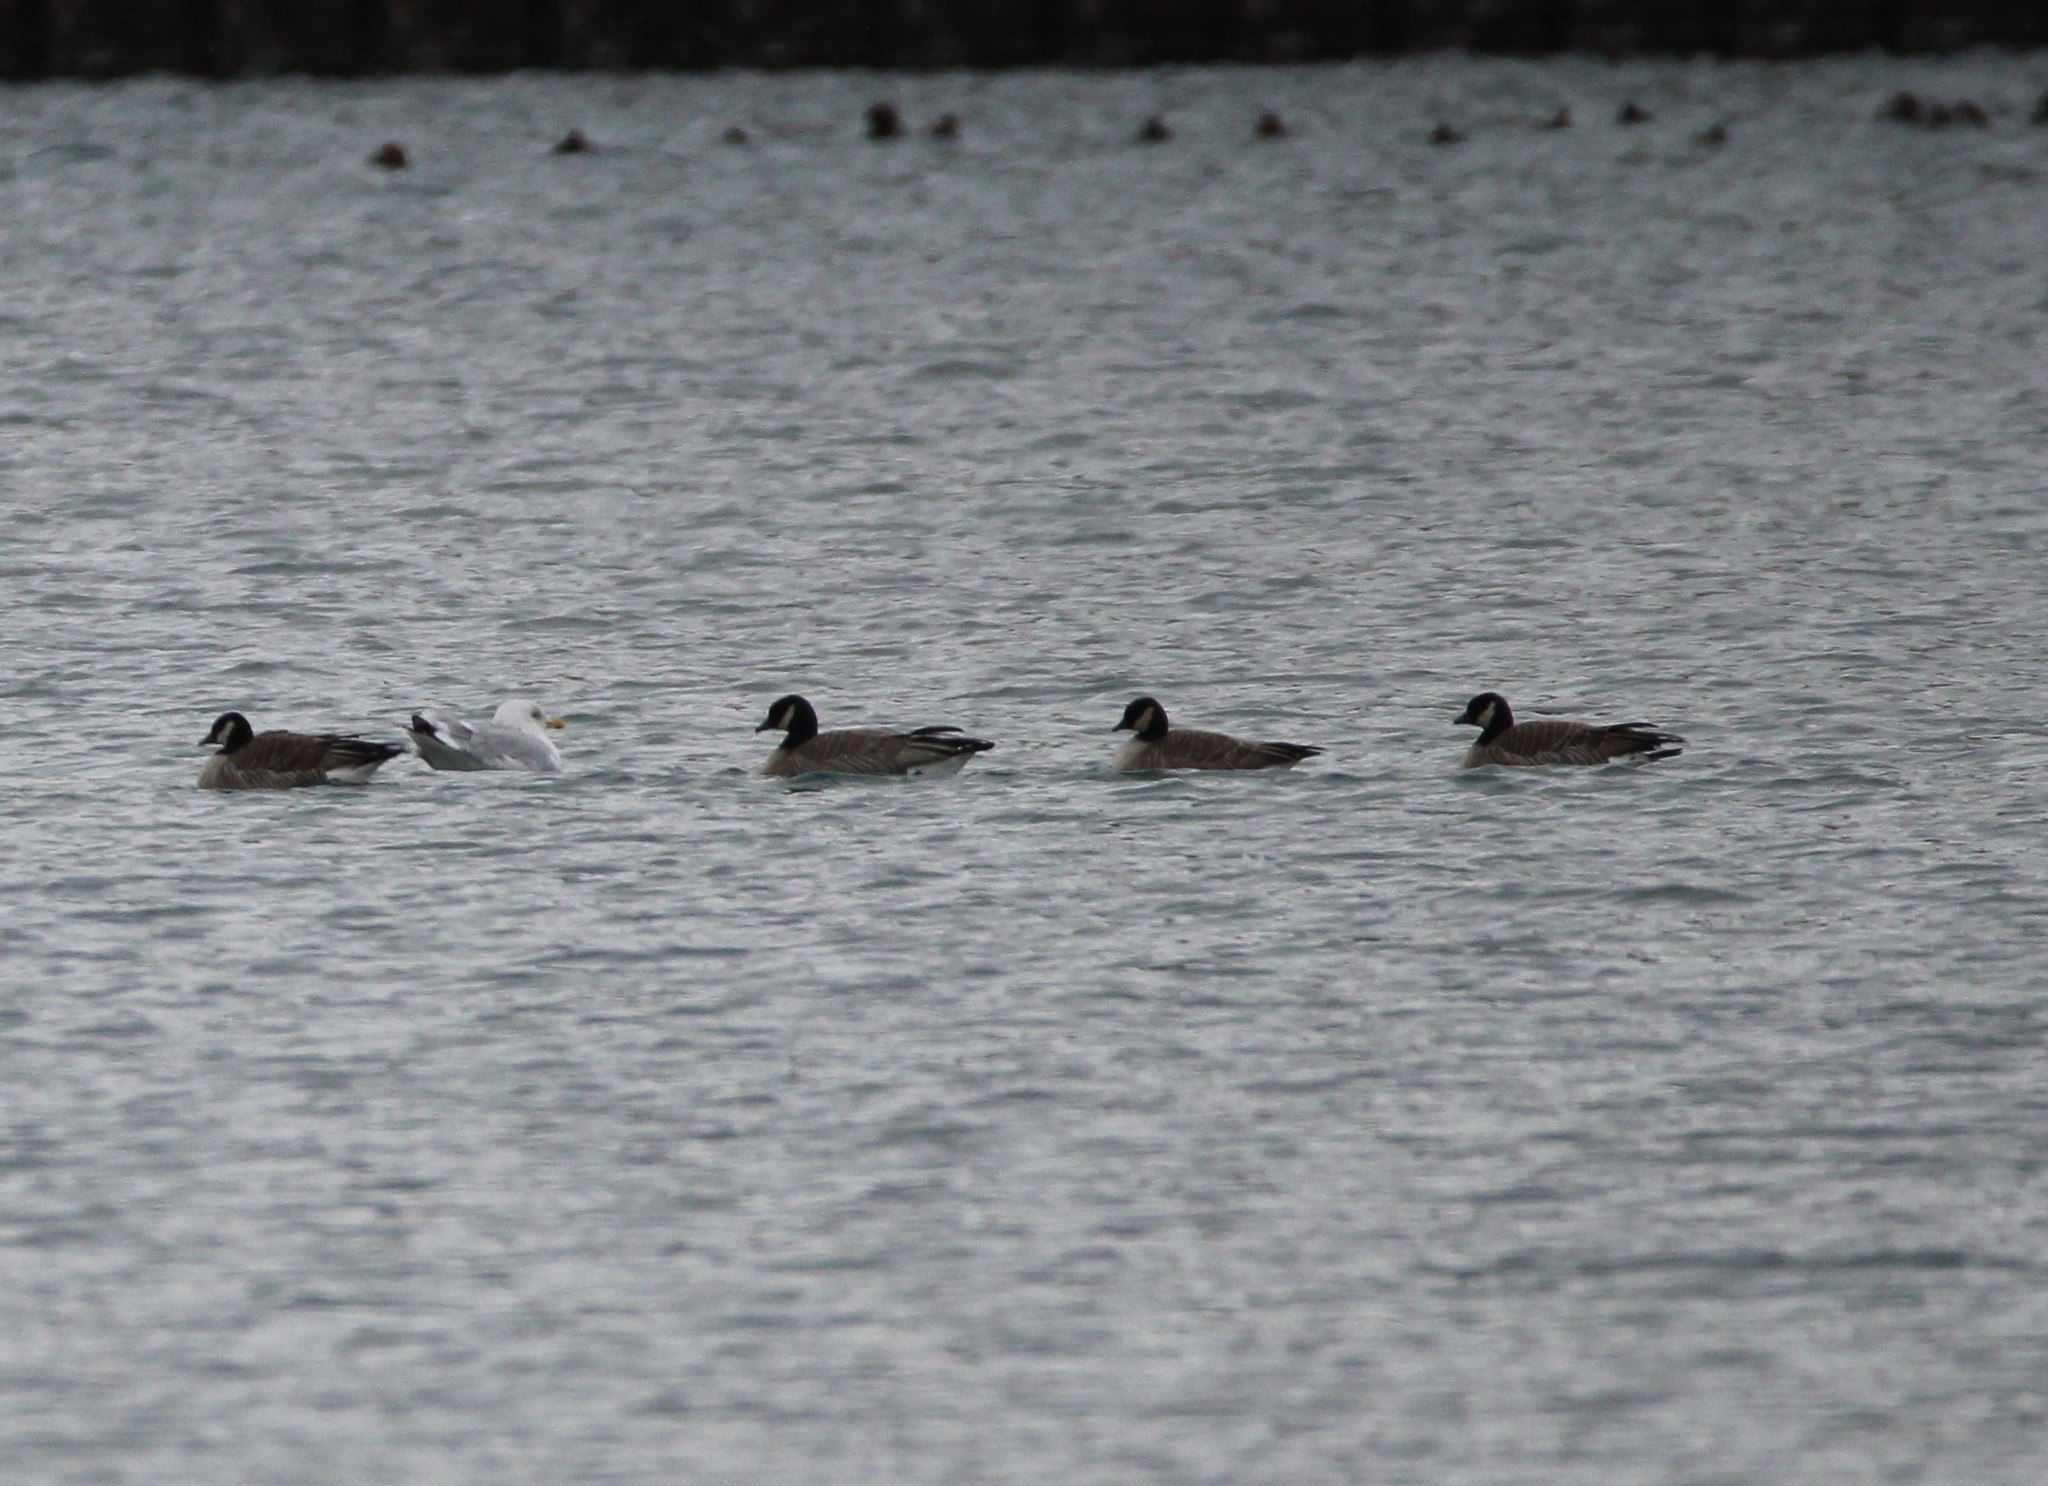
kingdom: Animalia
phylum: Chordata
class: Aves
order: Anseriformes
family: Anatidae
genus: Branta
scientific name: Branta hutchinsii
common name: Cackling goose
